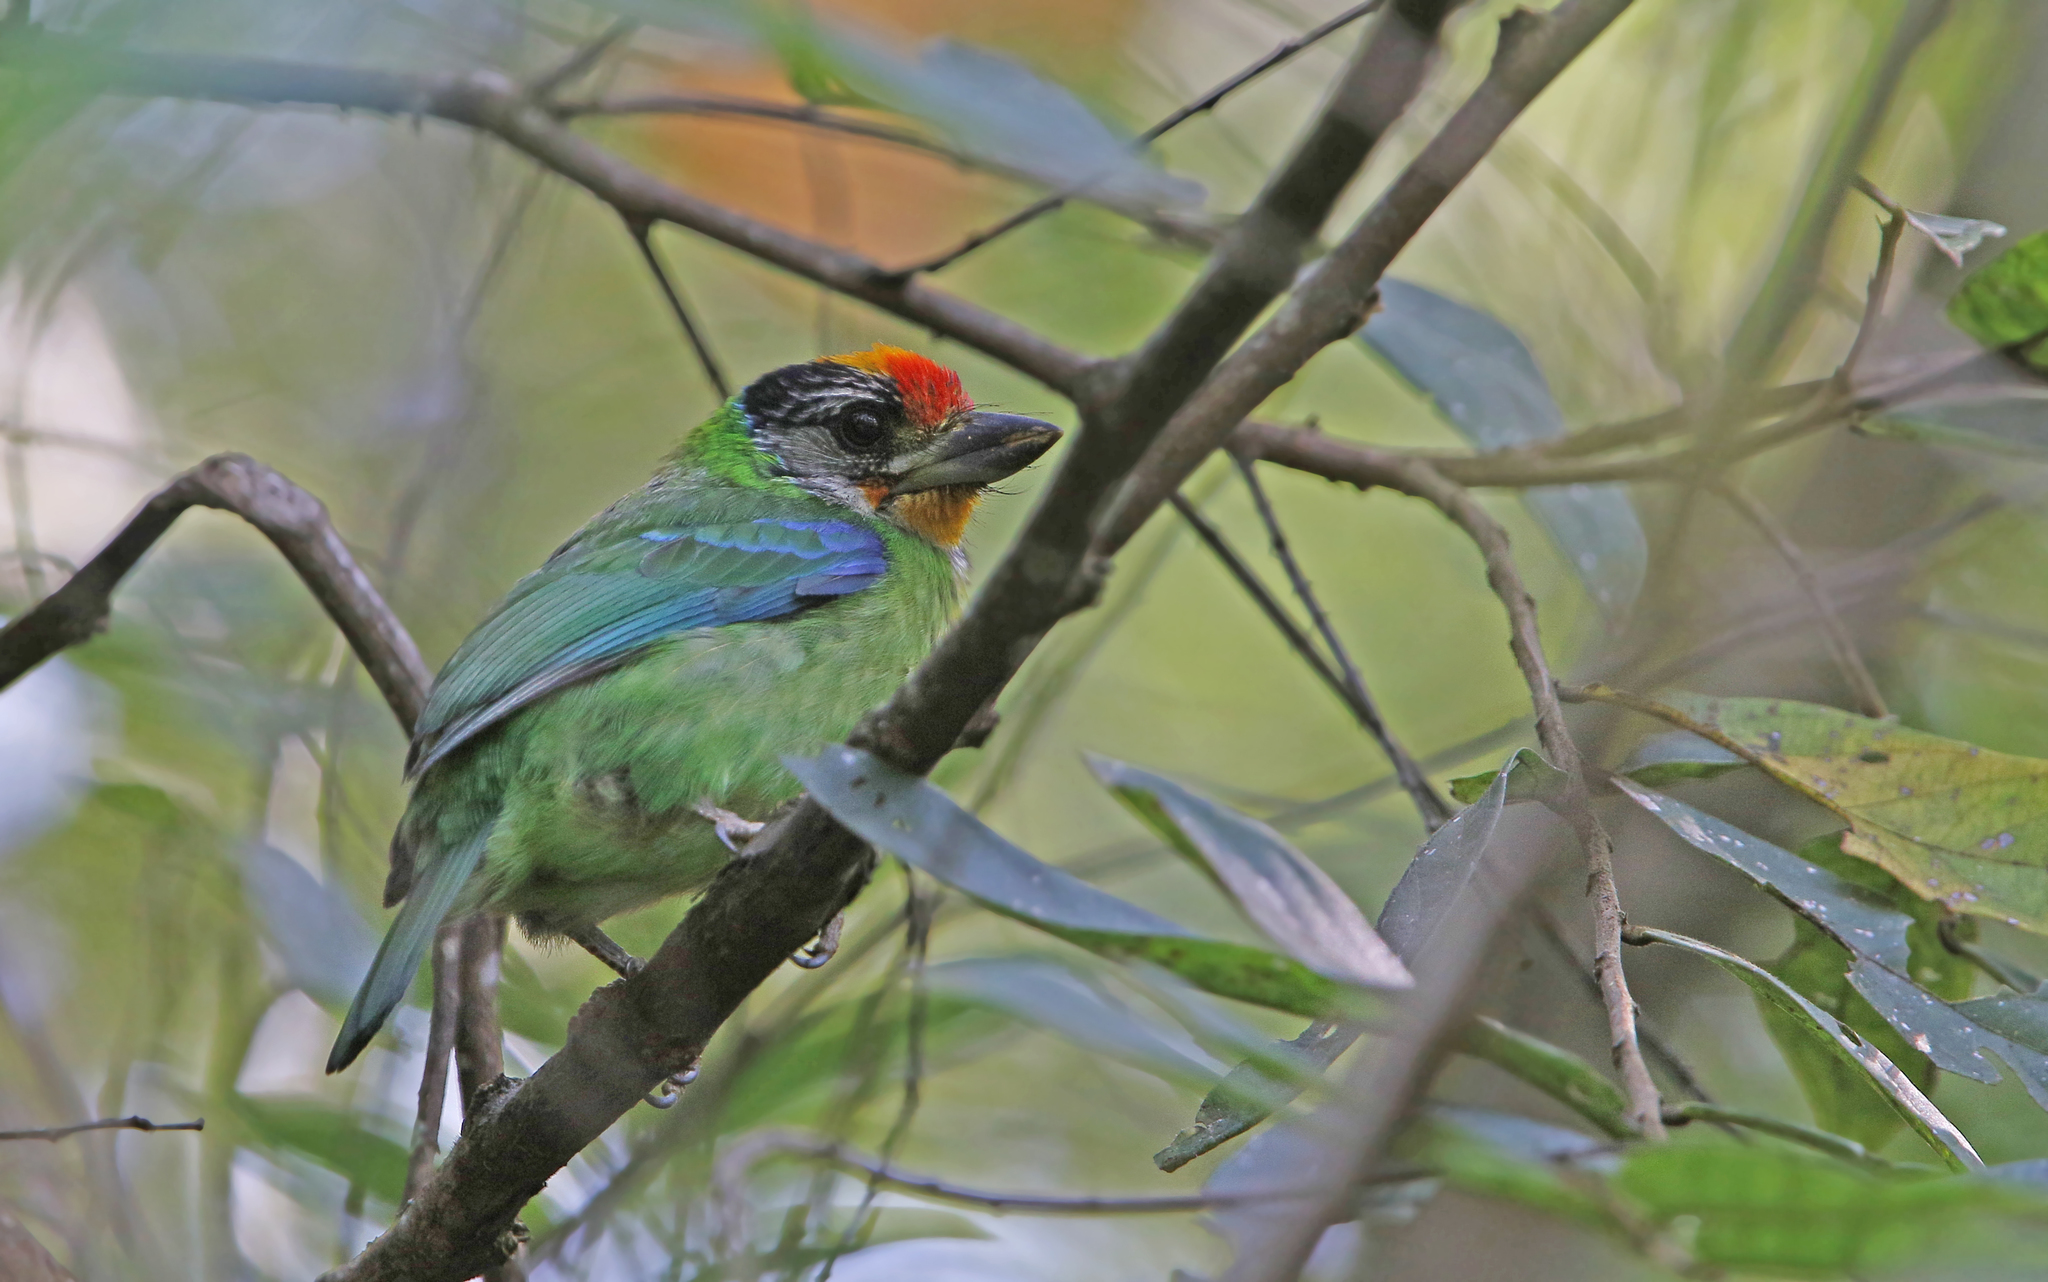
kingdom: Animalia
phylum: Chordata
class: Aves
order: Piciformes
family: Megalaimidae
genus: Psilopogon
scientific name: Psilopogon franklinii
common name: Golden-throated barbet
